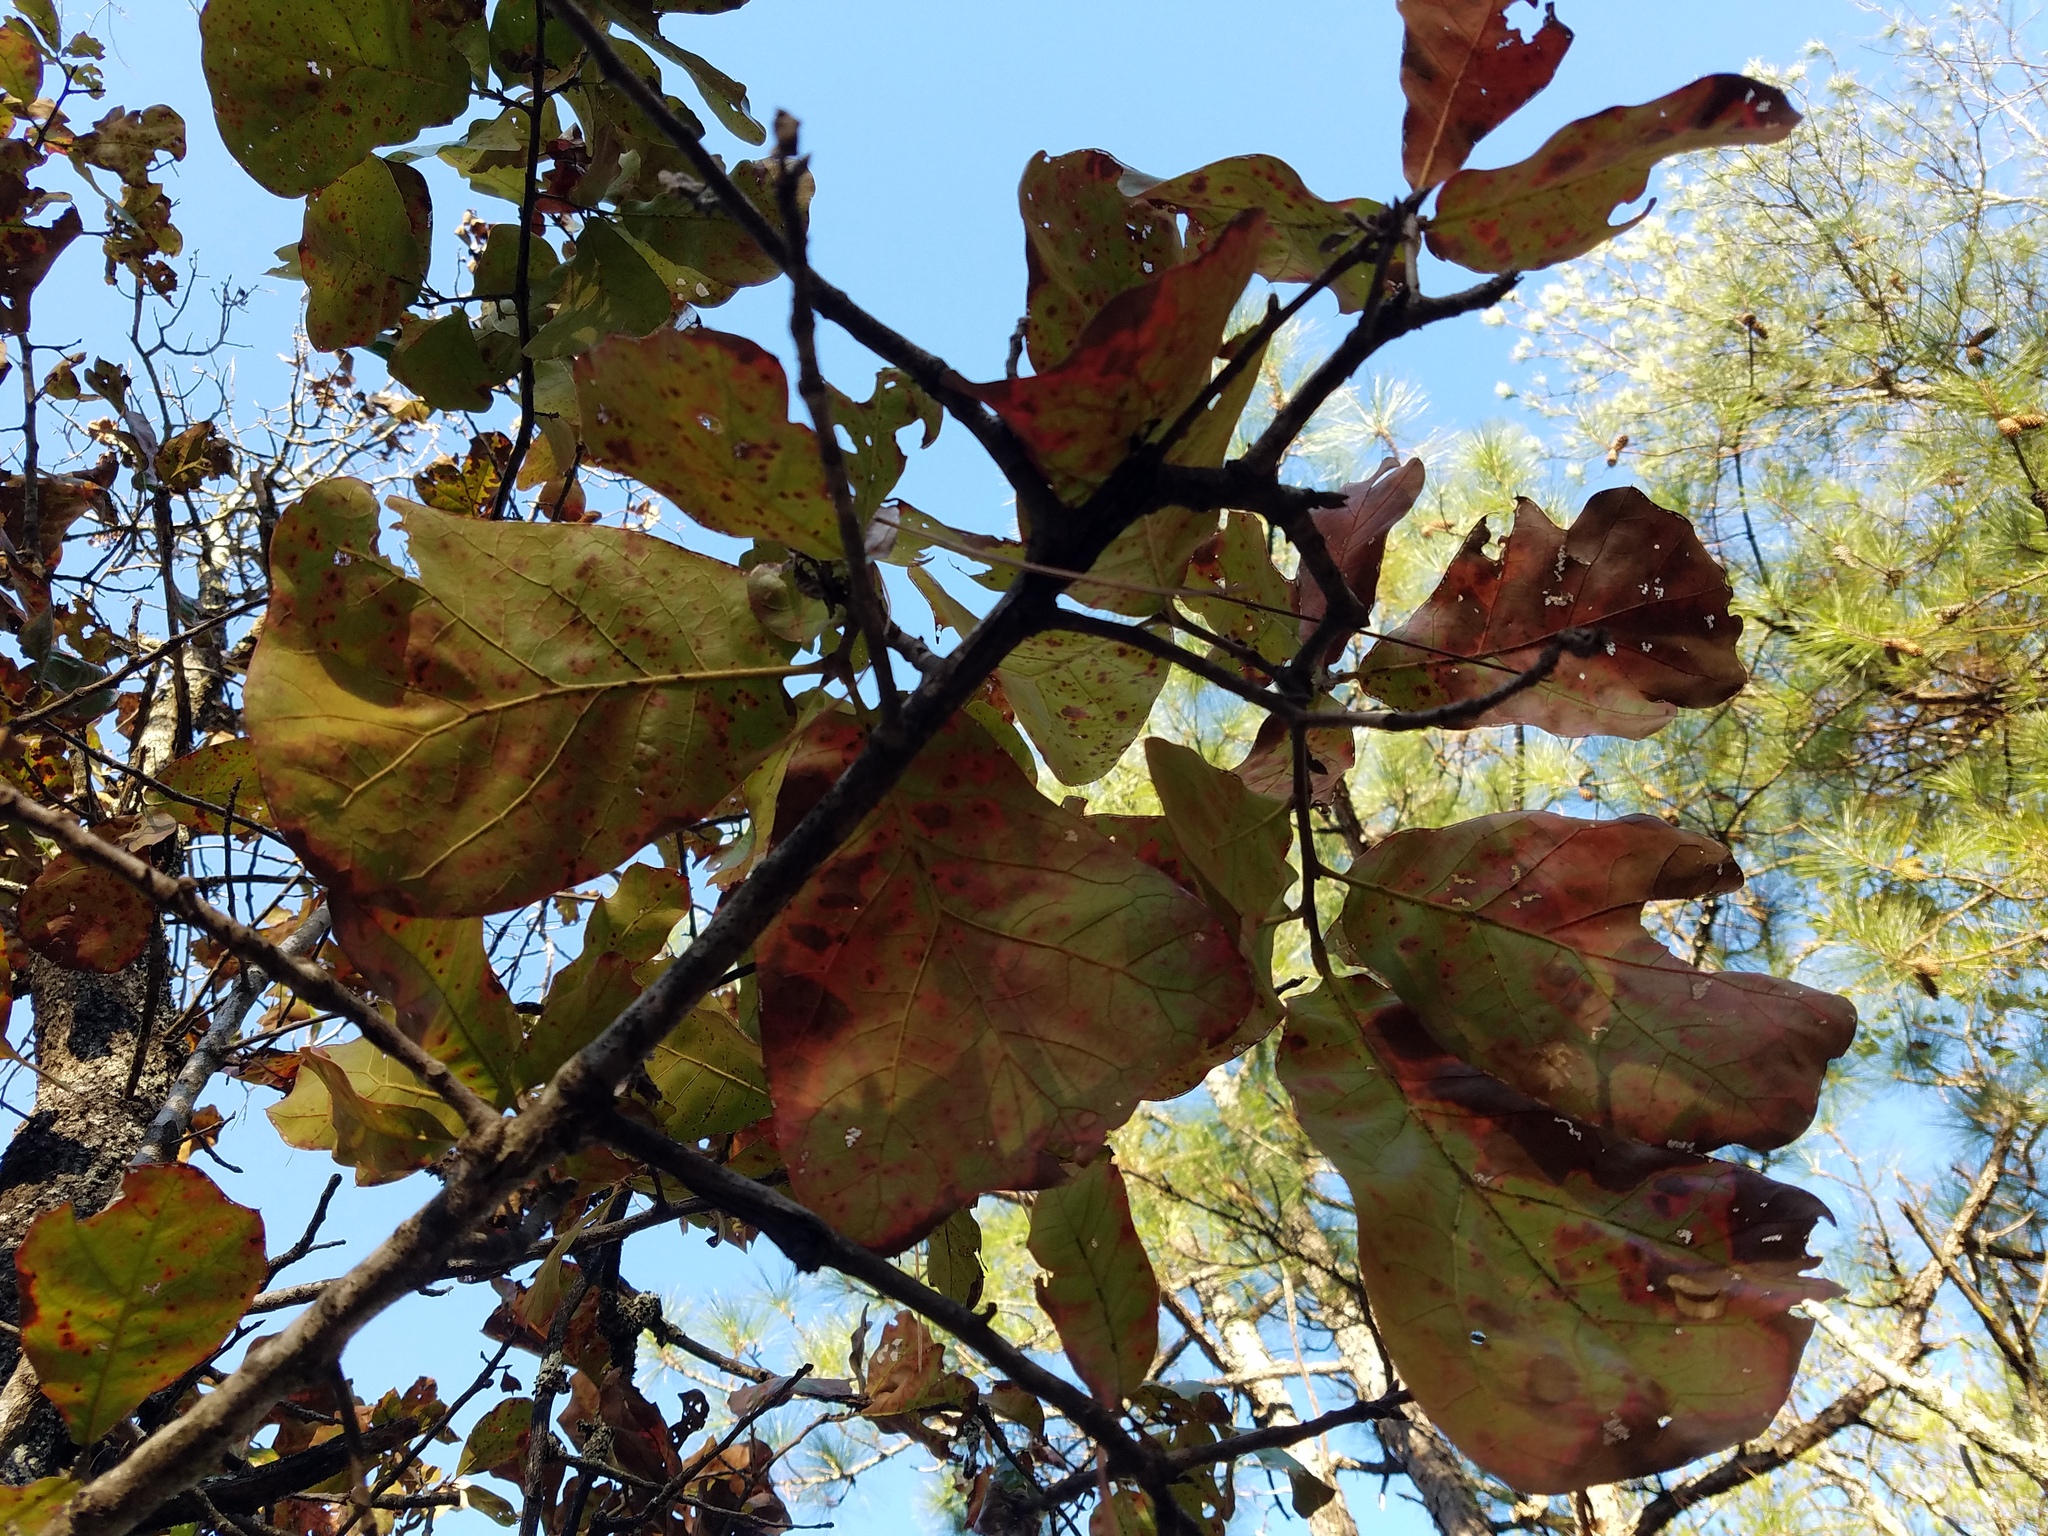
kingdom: Plantae
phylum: Tracheophyta
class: Magnoliopsida
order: Fagales
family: Fagaceae
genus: Quercus
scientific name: Quercus marilandica
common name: Blackjack oak
